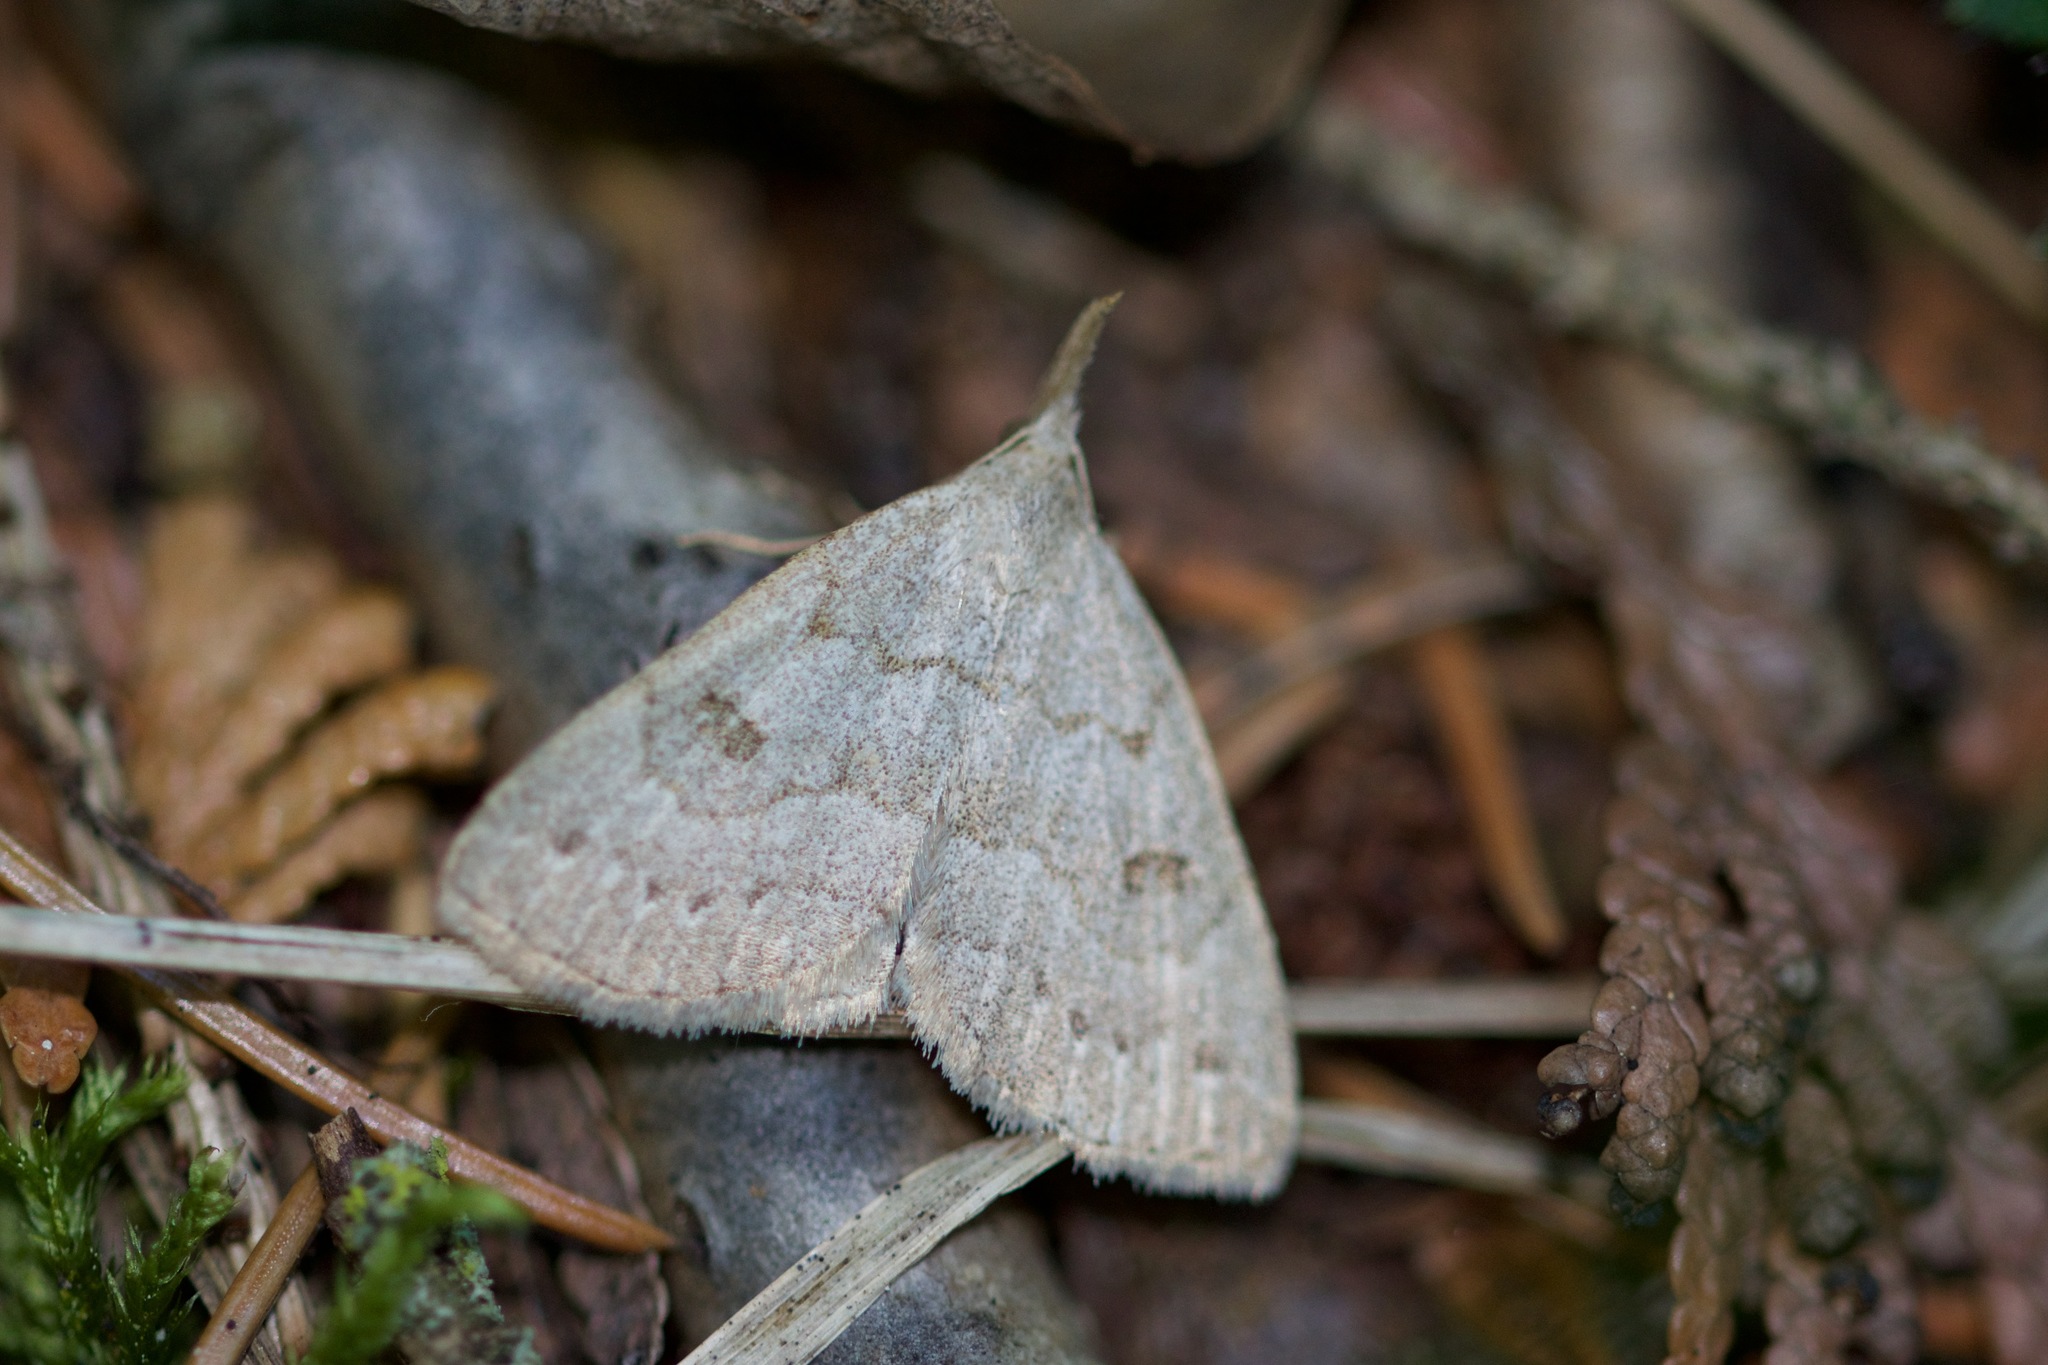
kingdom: Animalia
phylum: Arthropoda
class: Insecta
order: Lepidoptera
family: Erebidae
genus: Macrochilo
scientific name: Macrochilo morbidalis
